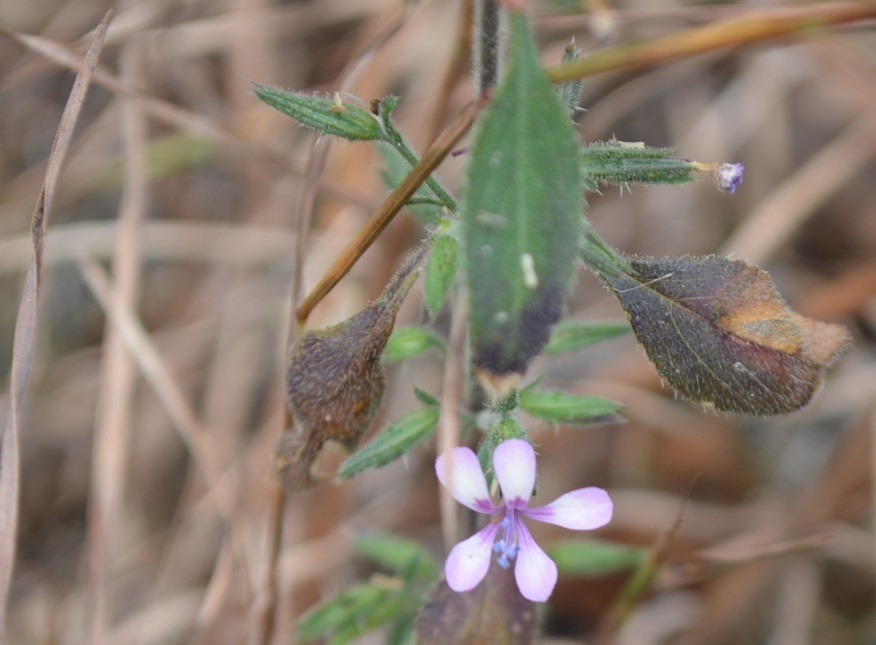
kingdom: Plantae
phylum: Tracheophyta
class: Magnoliopsida
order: Ericales
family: Polemoniaceae
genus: Loeselia
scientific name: Loeselia pumila
